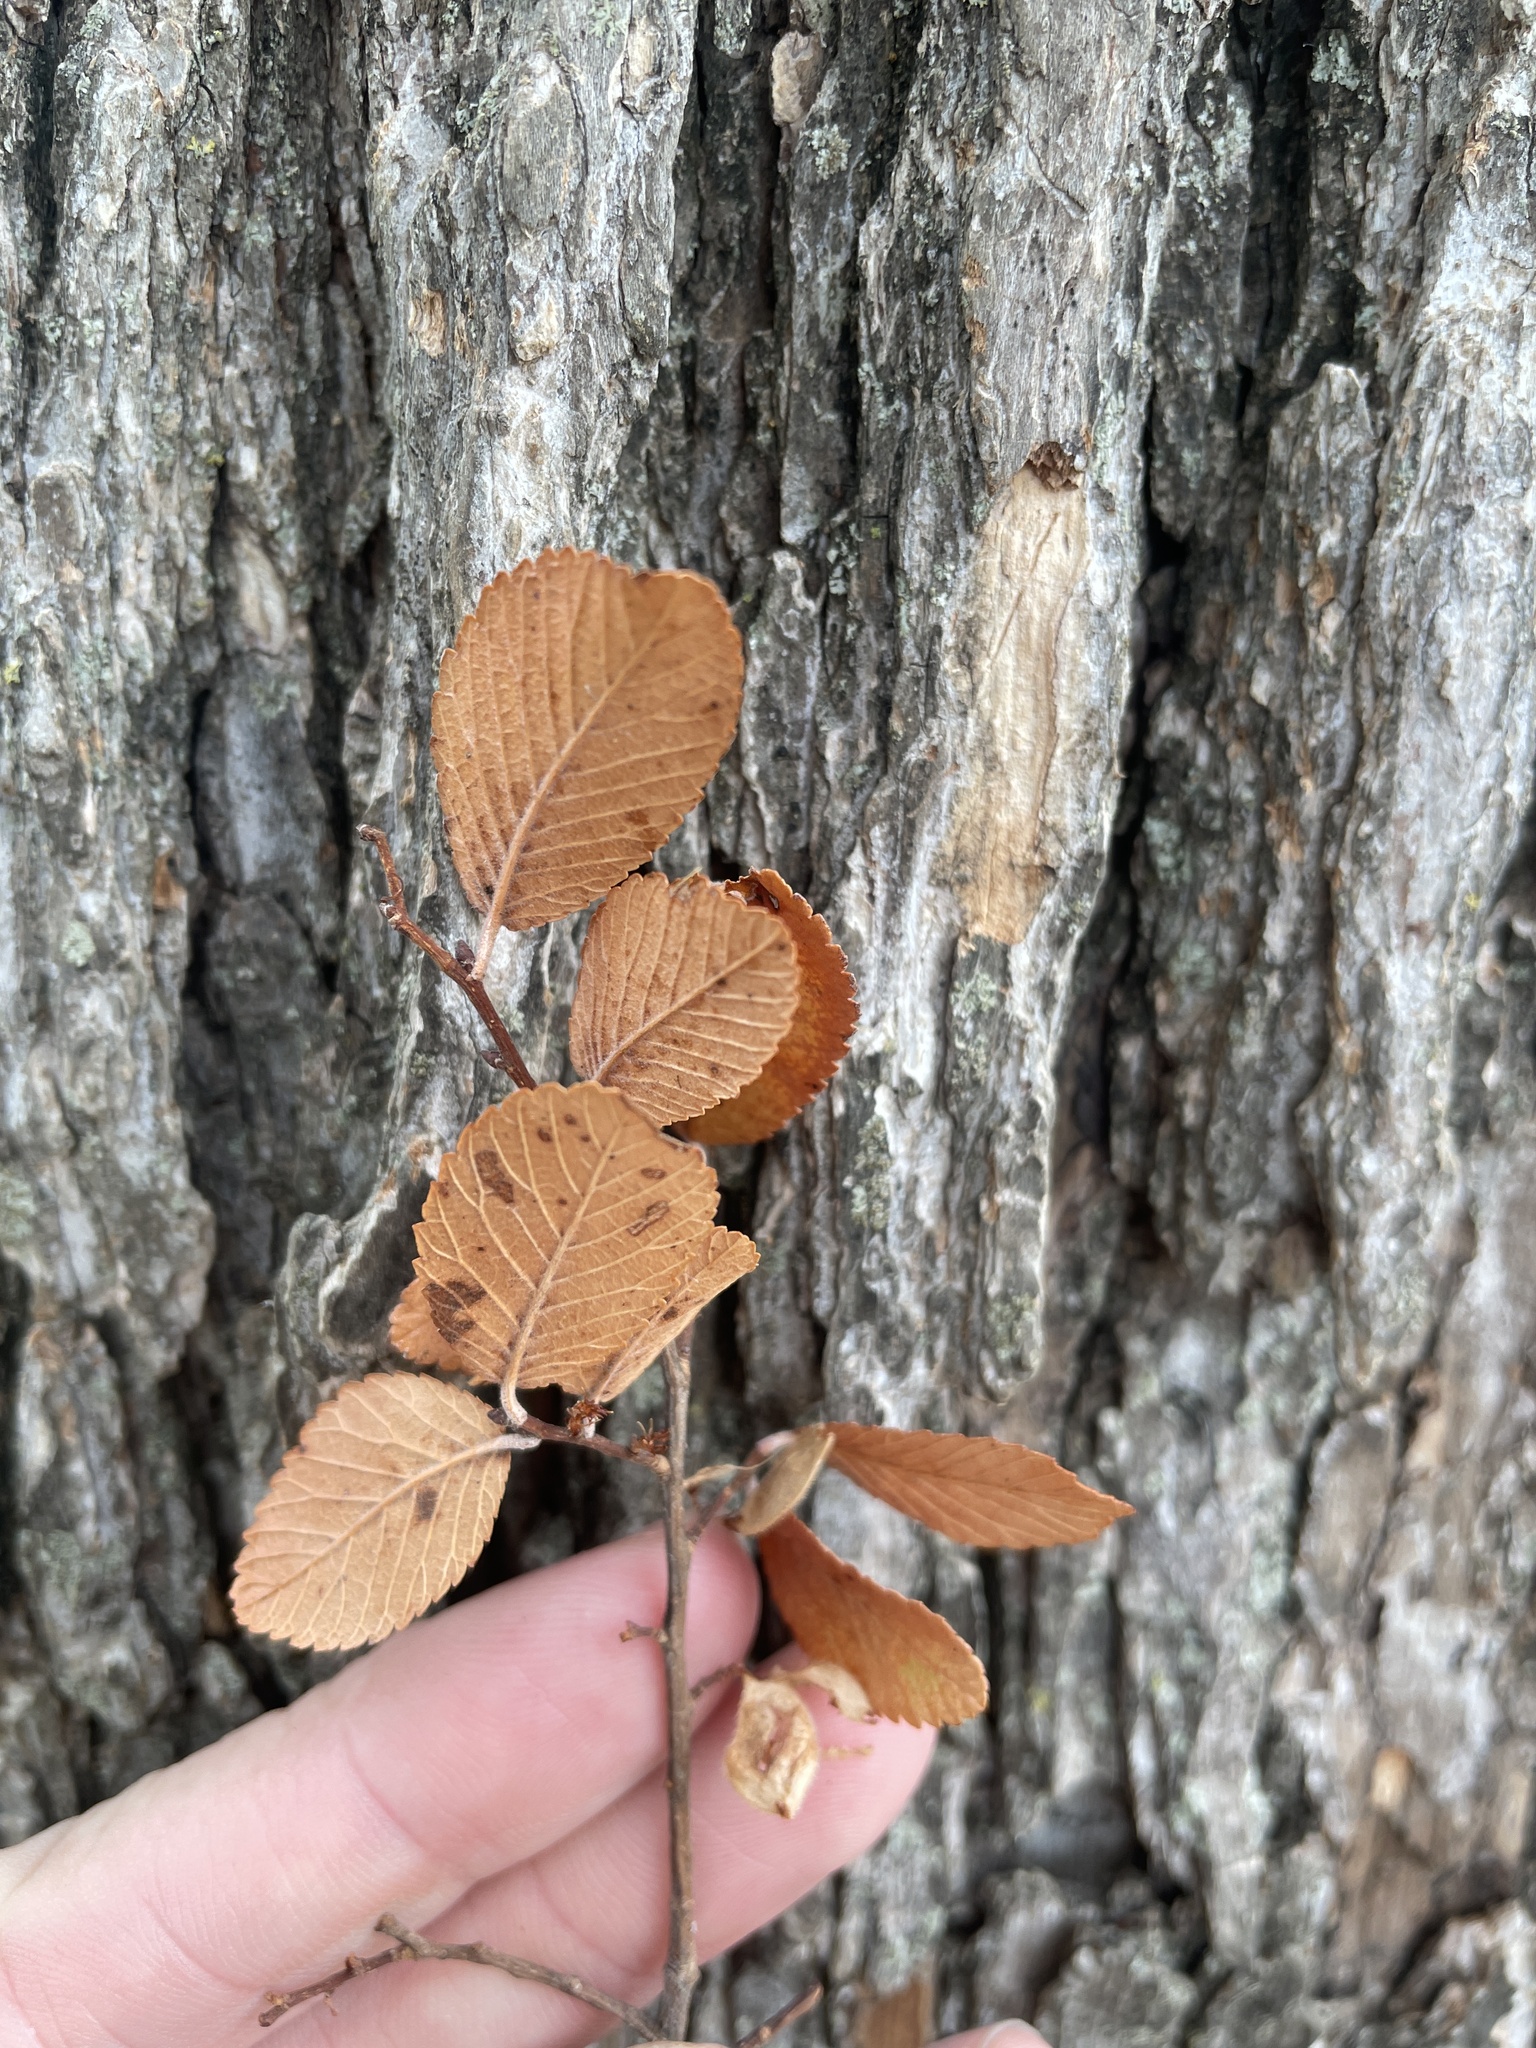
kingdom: Plantae
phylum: Tracheophyta
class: Magnoliopsida
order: Rosales
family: Ulmaceae
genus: Ulmus
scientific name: Ulmus crassifolia
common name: Basket elm
